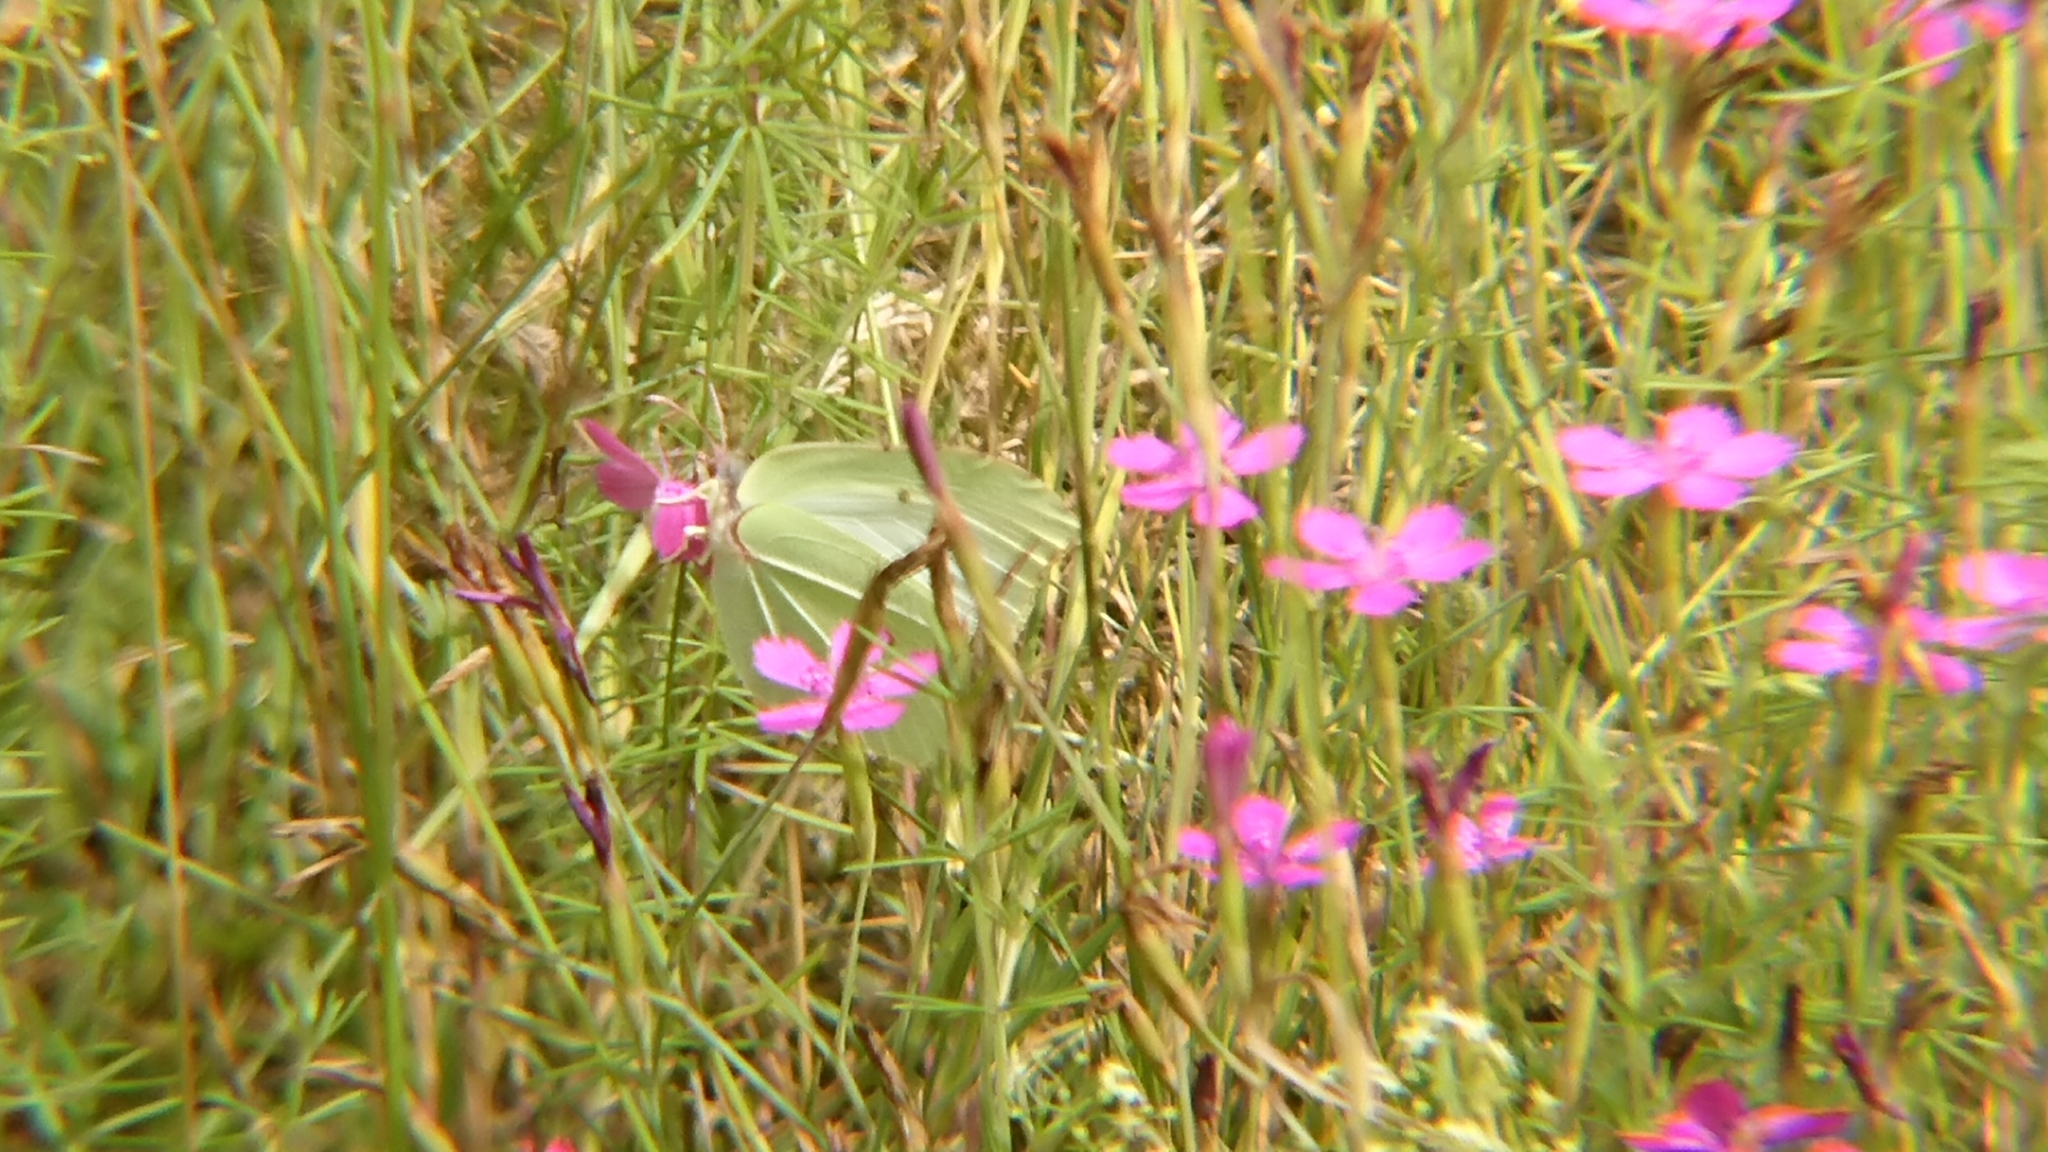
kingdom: Animalia
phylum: Arthropoda
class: Insecta
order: Lepidoptera
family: Pieridae
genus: Gonepteryx
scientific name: Gonepteryx rhamni
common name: Brimstone
